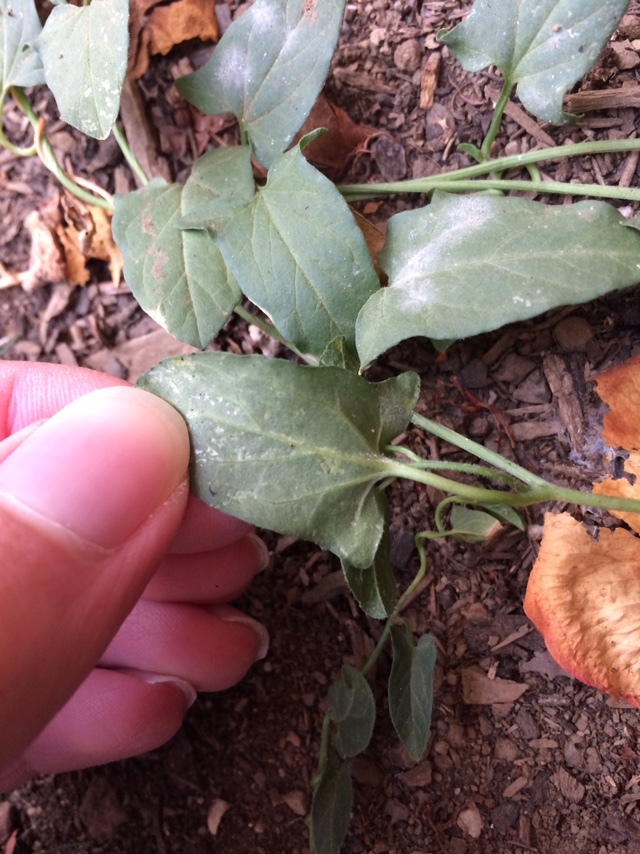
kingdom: Plantae
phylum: Tracheophyta
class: Magnoliopsida
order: Solanales
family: Convolvulaceae
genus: Convolvulus
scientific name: Convolvulus arvensis
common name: Field bindweed
